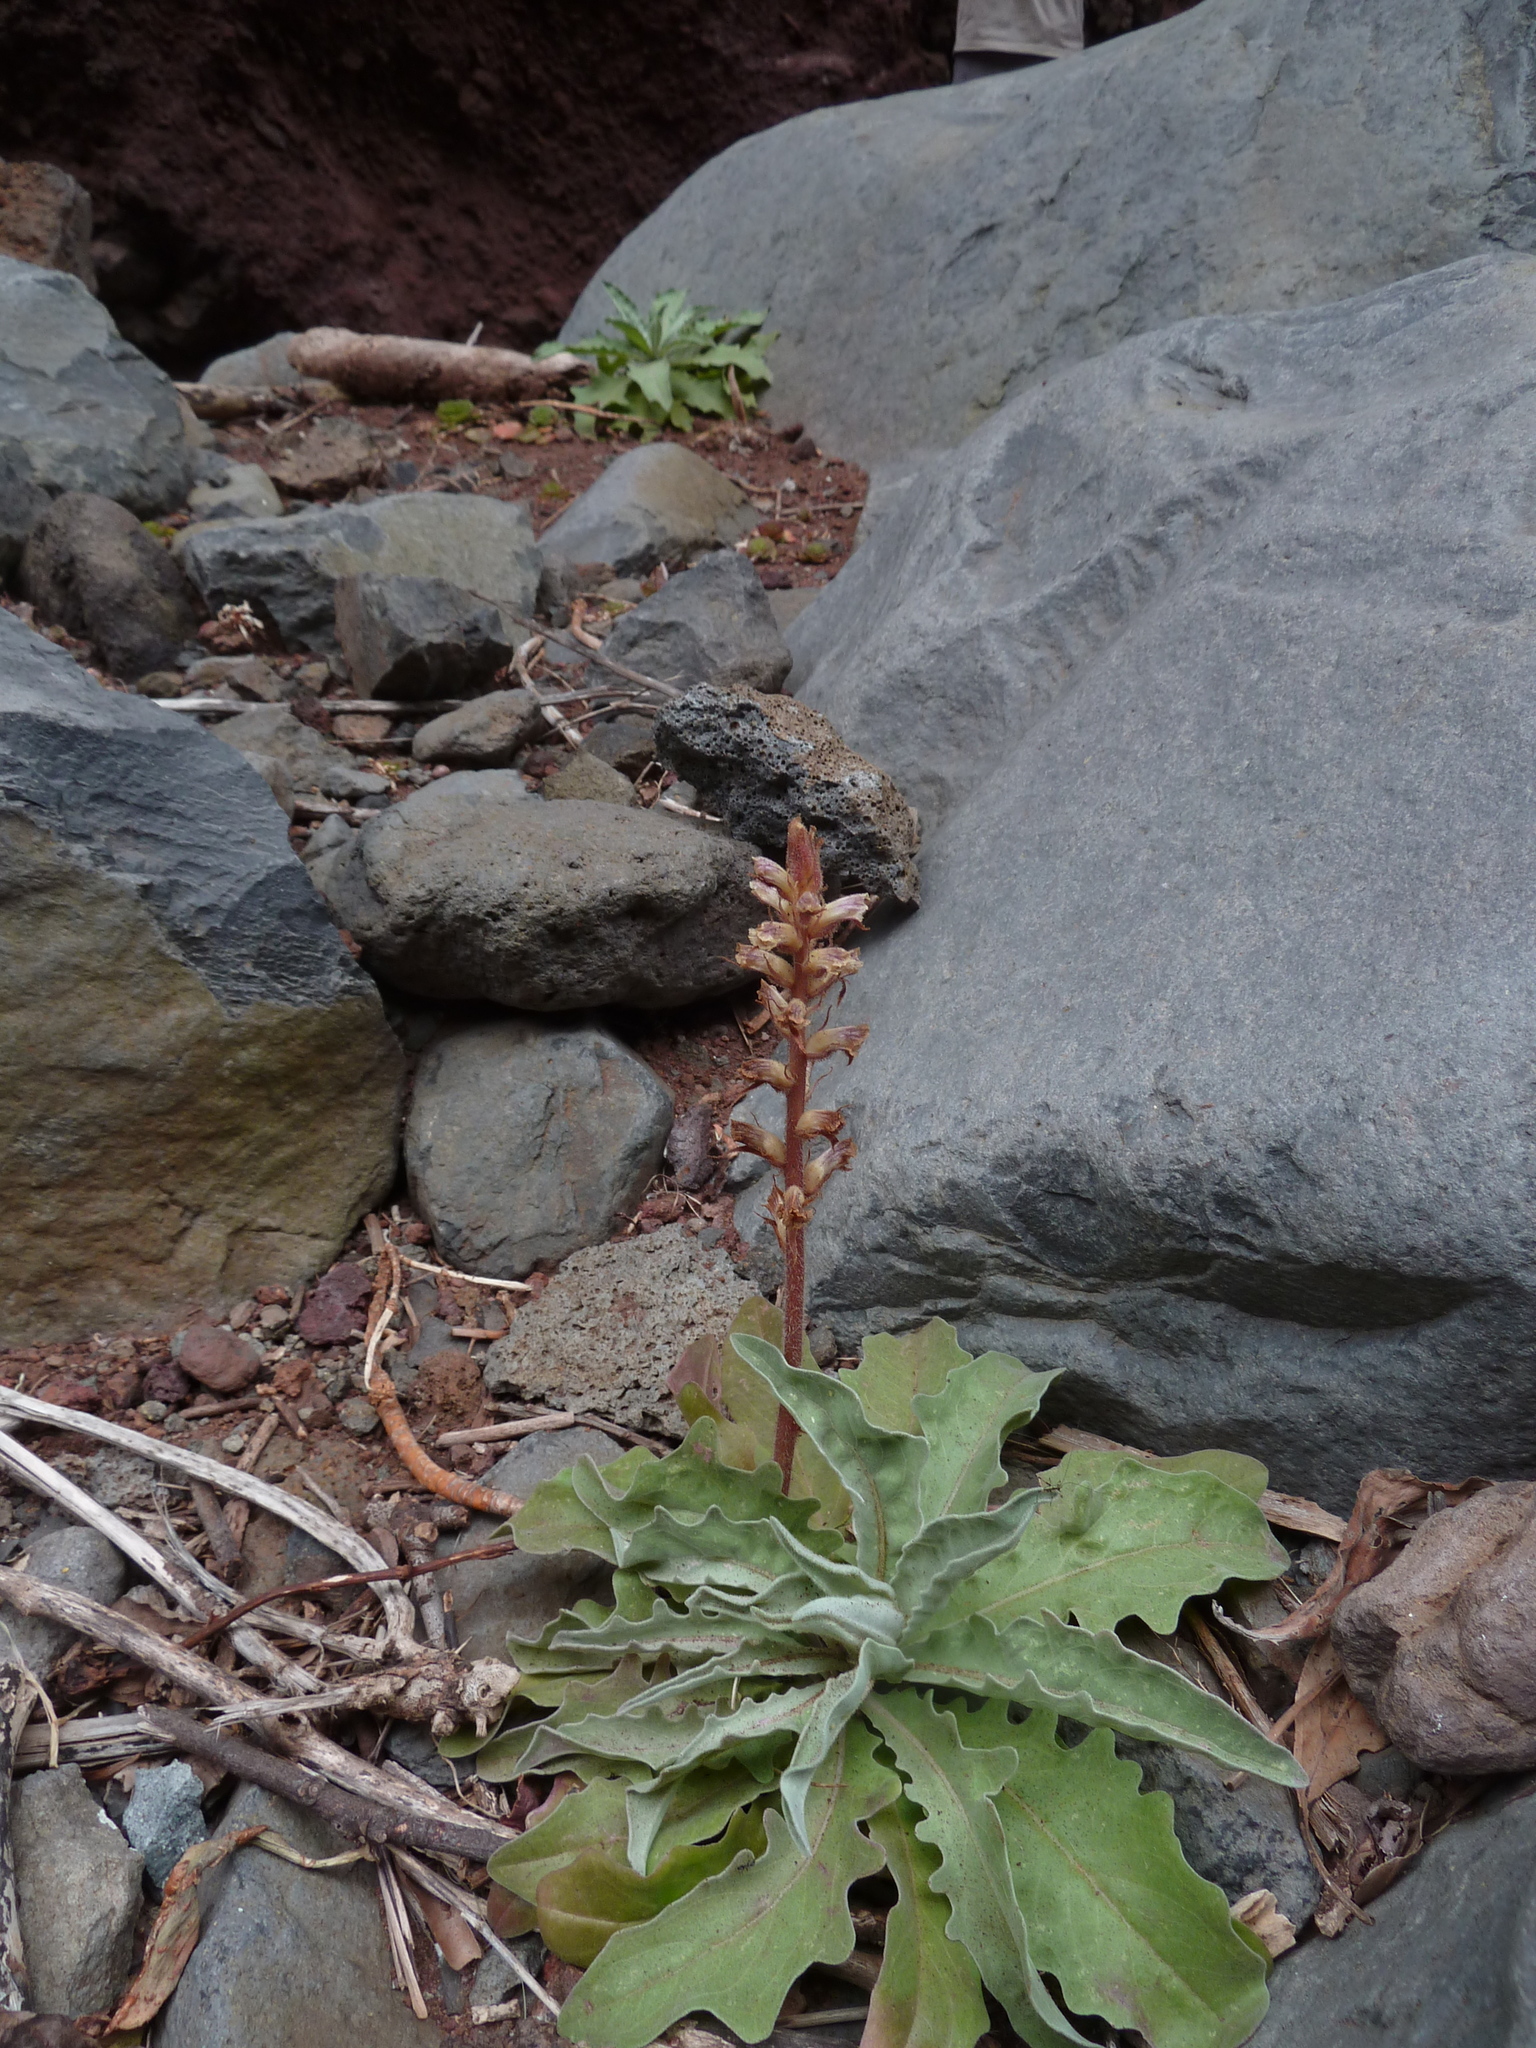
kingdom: Plantae
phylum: Tracheophyta
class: Magnoliopsida
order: Lamiales
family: Orobanchaceae
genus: Orobanche
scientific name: Orobanche minor
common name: Common broomrape
